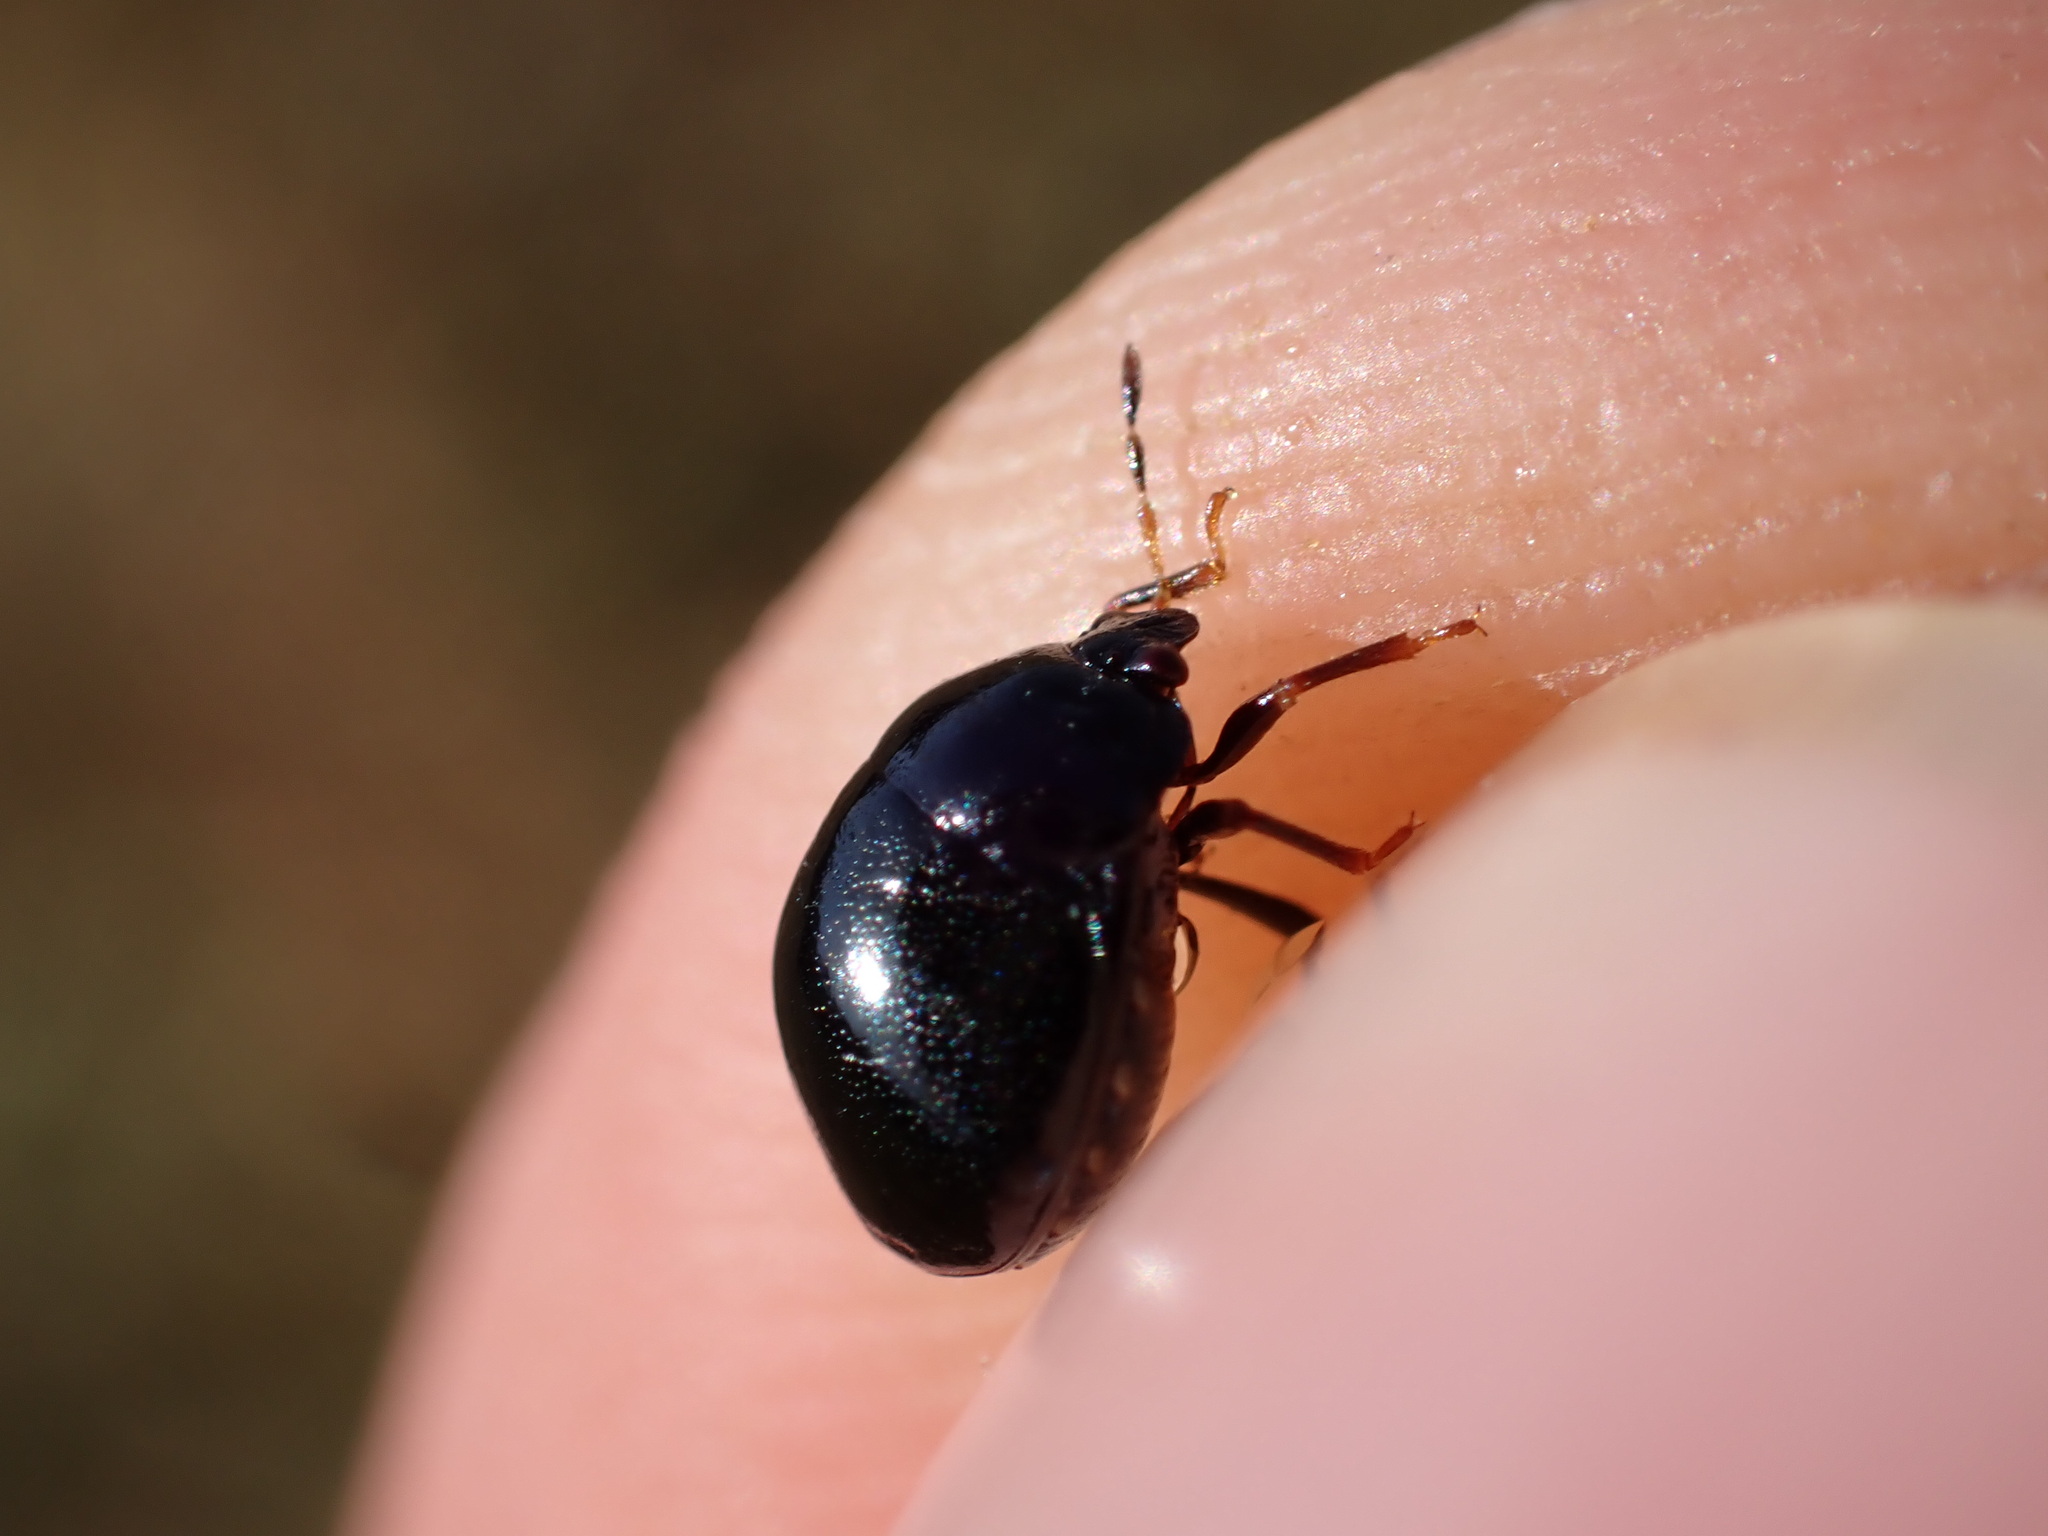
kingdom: Animalia
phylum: Arthropoda
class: Insecta
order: Hemiptera
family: Plataspidae
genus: Coptosoma
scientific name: Coptosoma scutellatum
